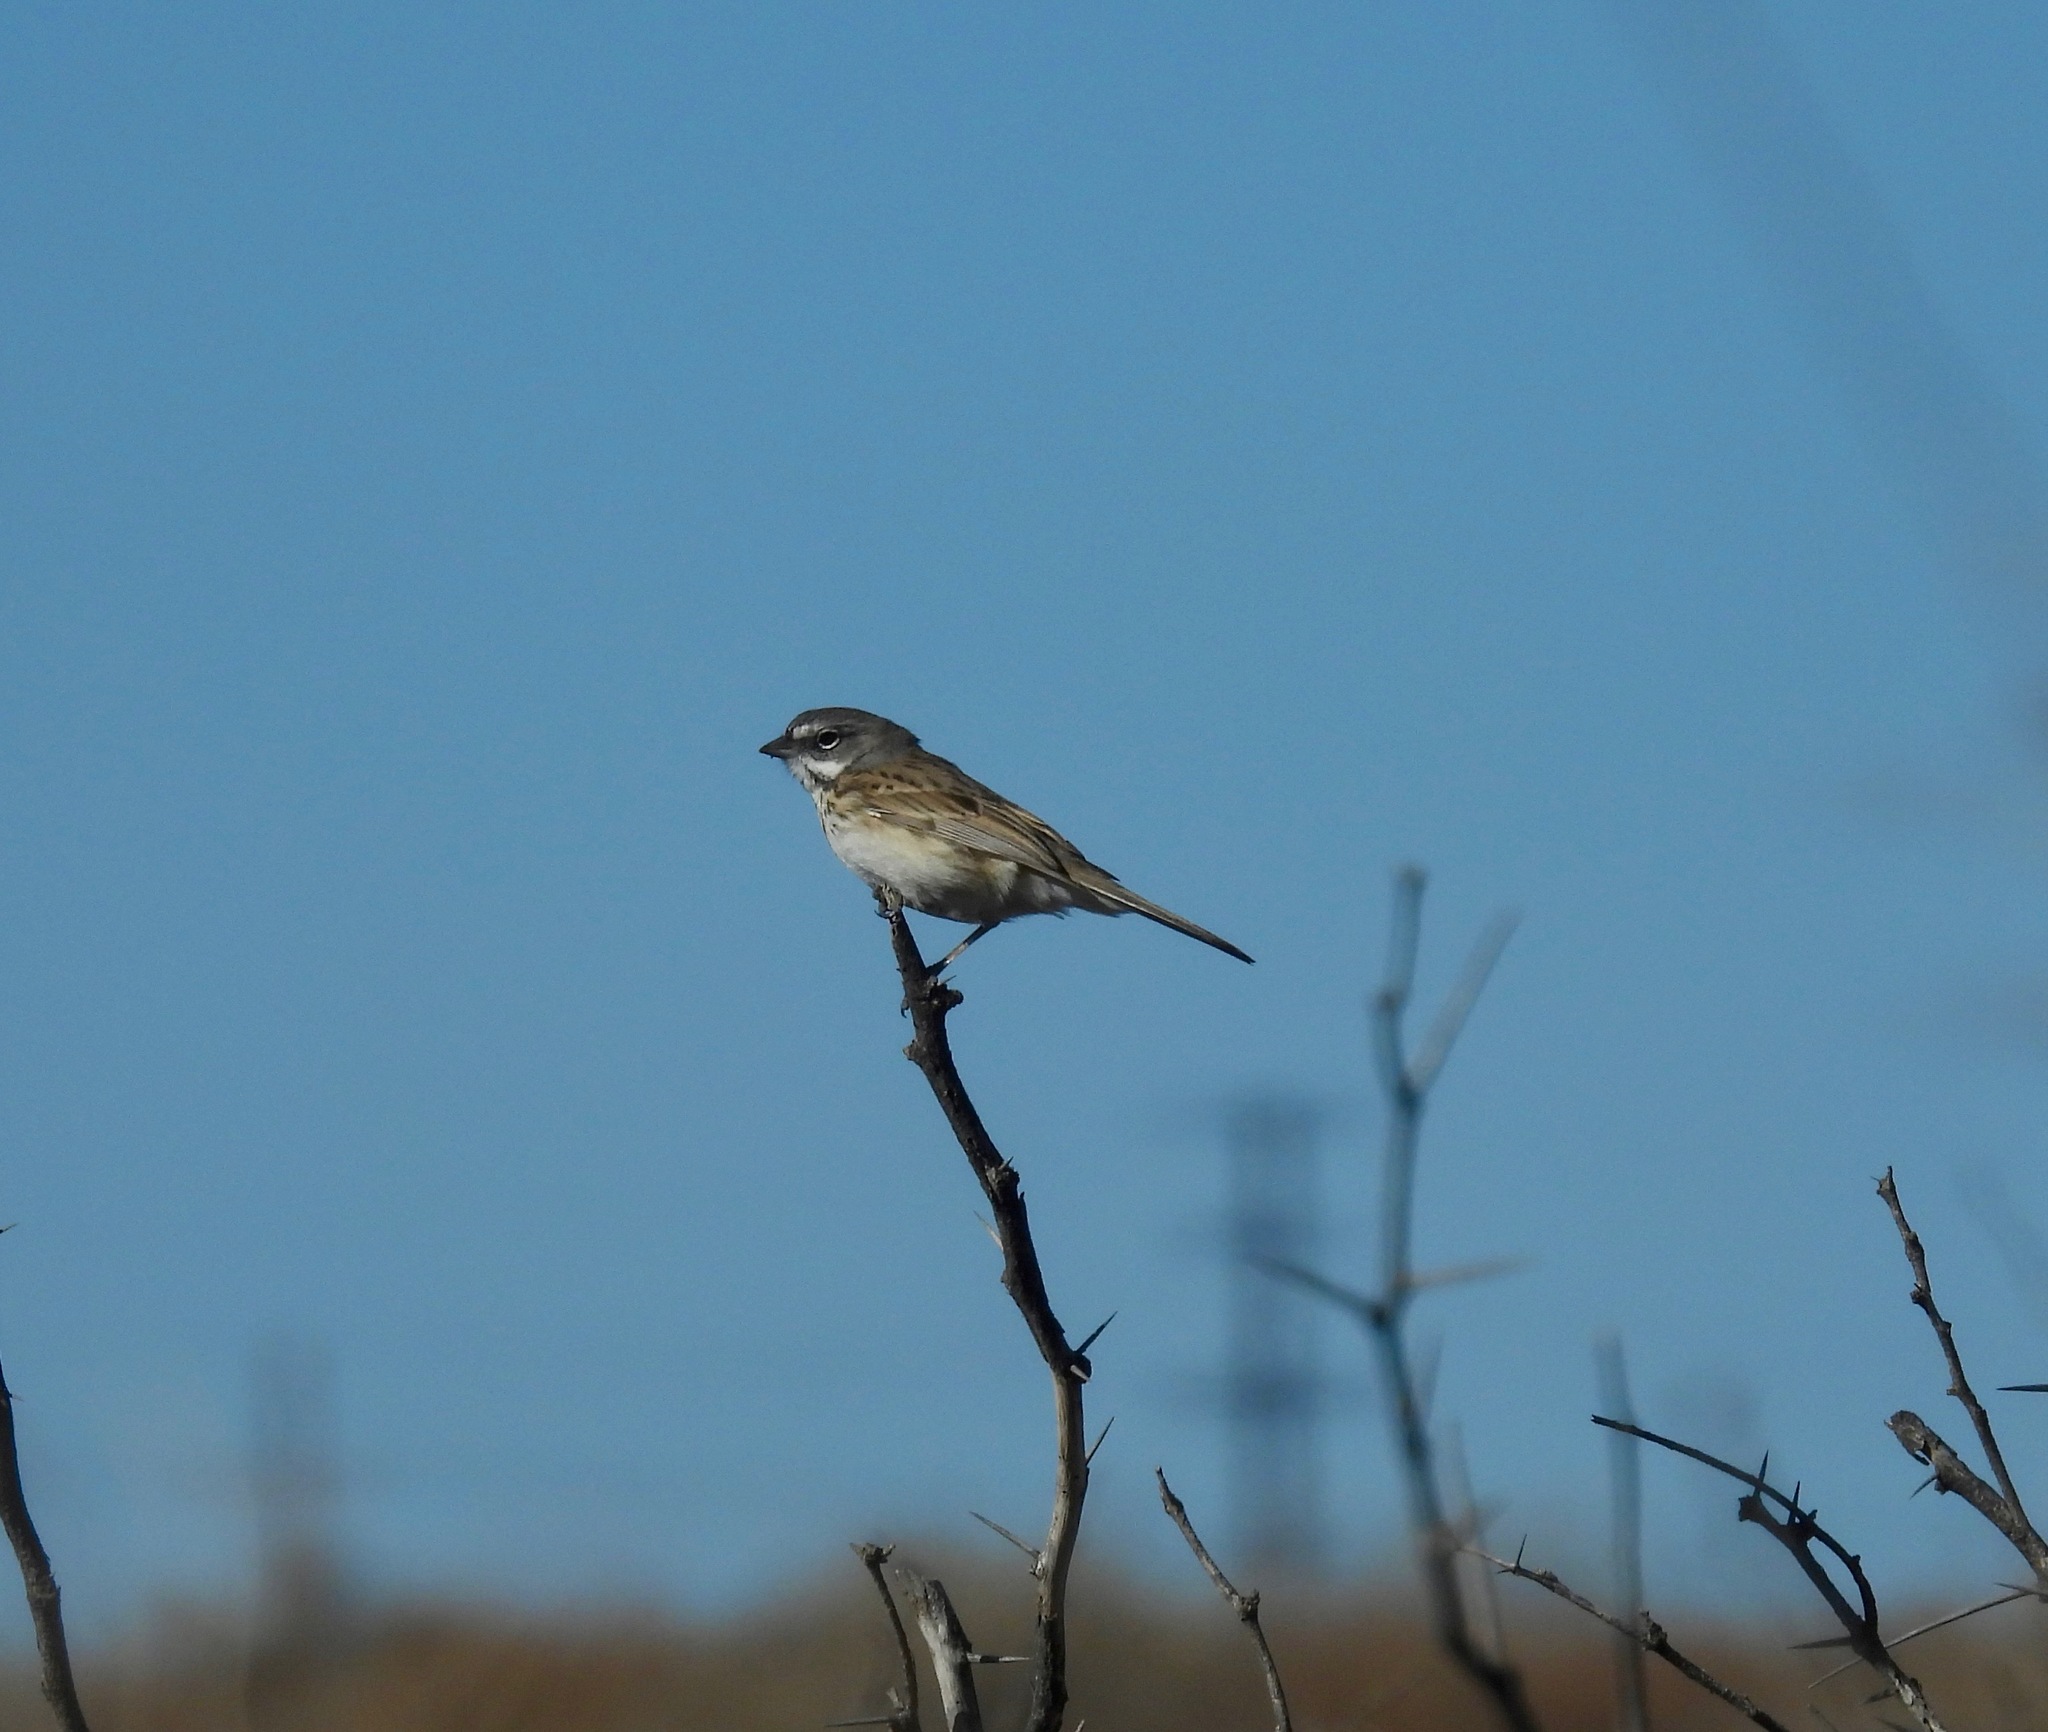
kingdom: Animalia
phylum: Chordata
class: Aves
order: Passeriformes
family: Passerellidae
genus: Artemisiospiza
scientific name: Artemisiospiza nevadensis
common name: Sagebrush sparrow
